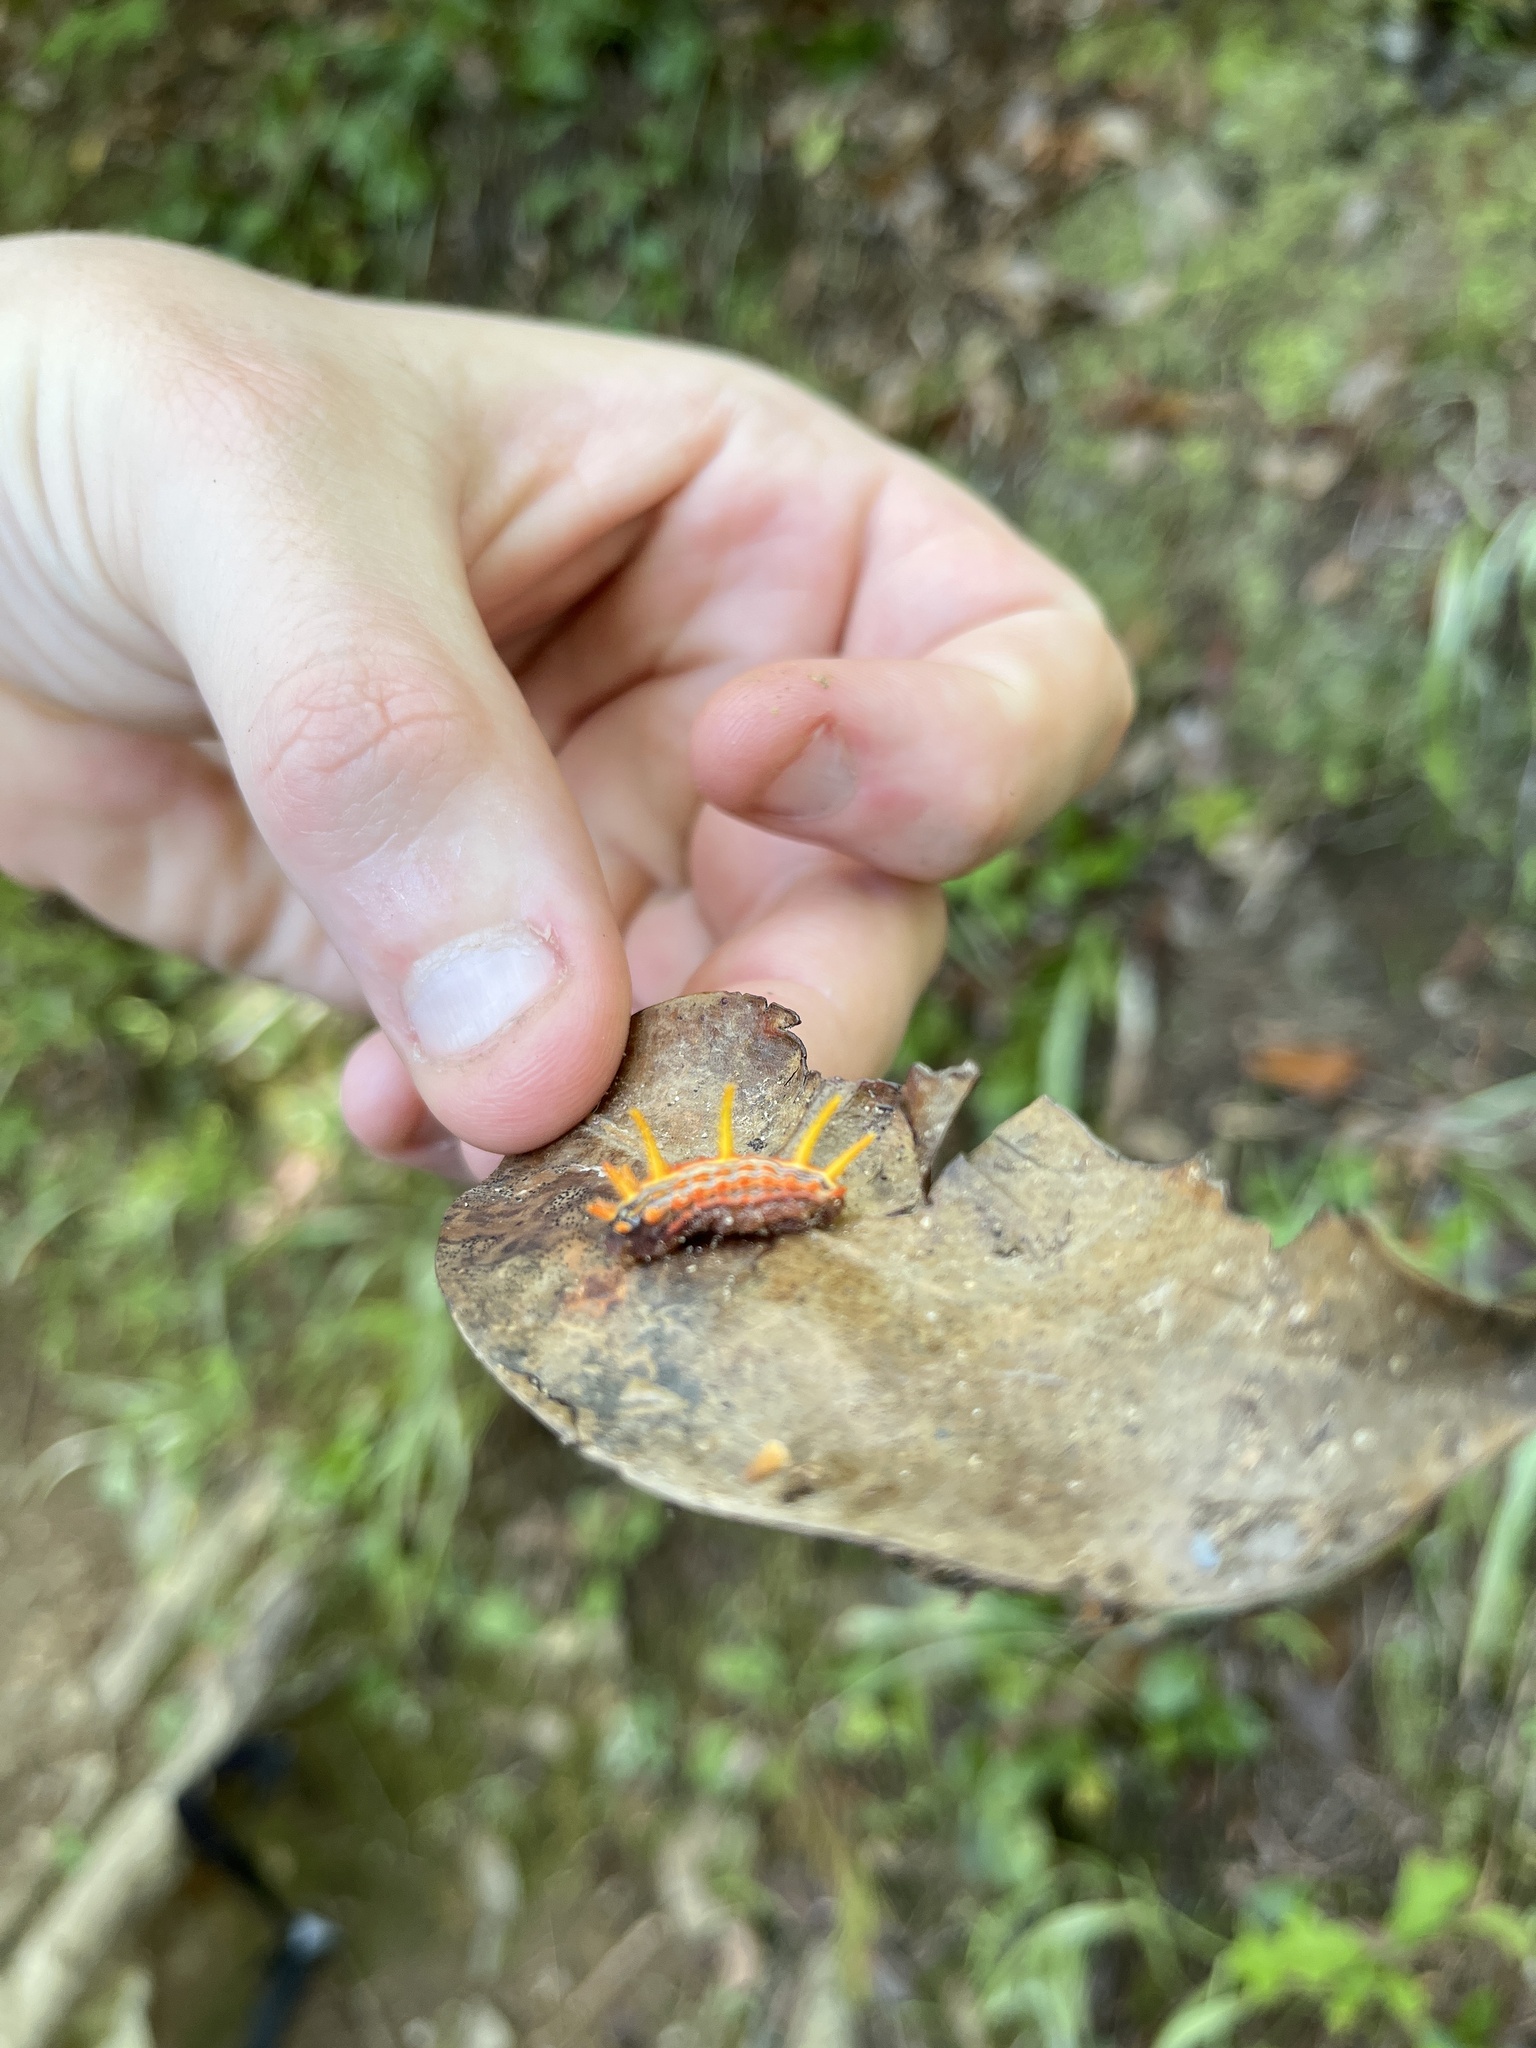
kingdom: Animalia
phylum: Arthropoda
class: Insecta
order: Lepidoptera
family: Limacodidae
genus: Parasa
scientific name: Parasa indetermina
